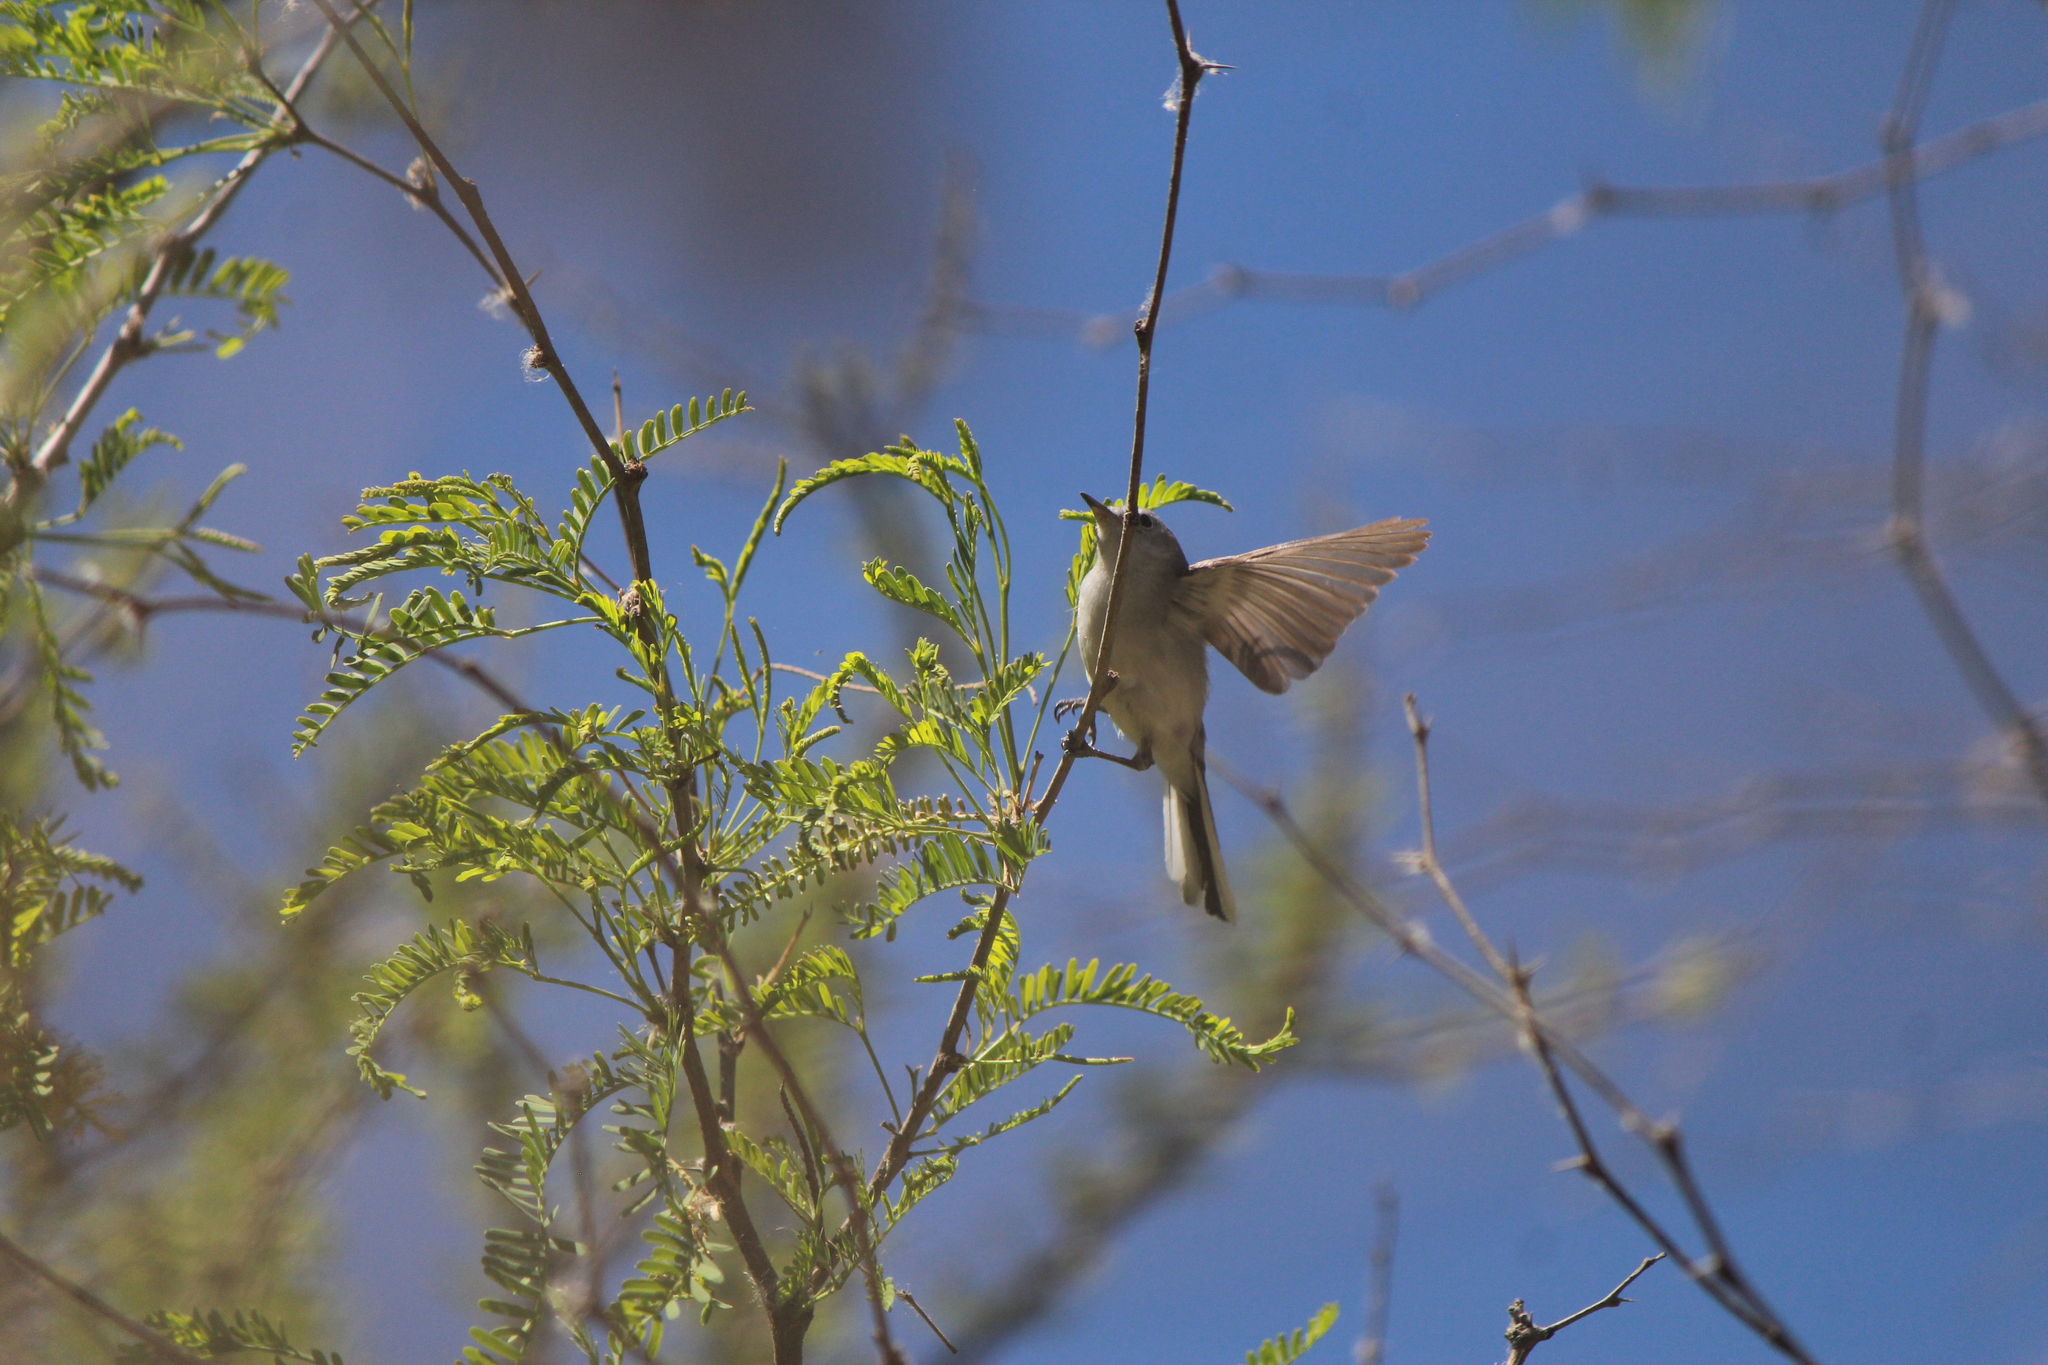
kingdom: Animalia
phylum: Chordata
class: Aves
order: Passeriformes
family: Polioptilidae
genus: Polioptila
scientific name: Polioptila caerulea
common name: Blue-gray gnatcatcher
